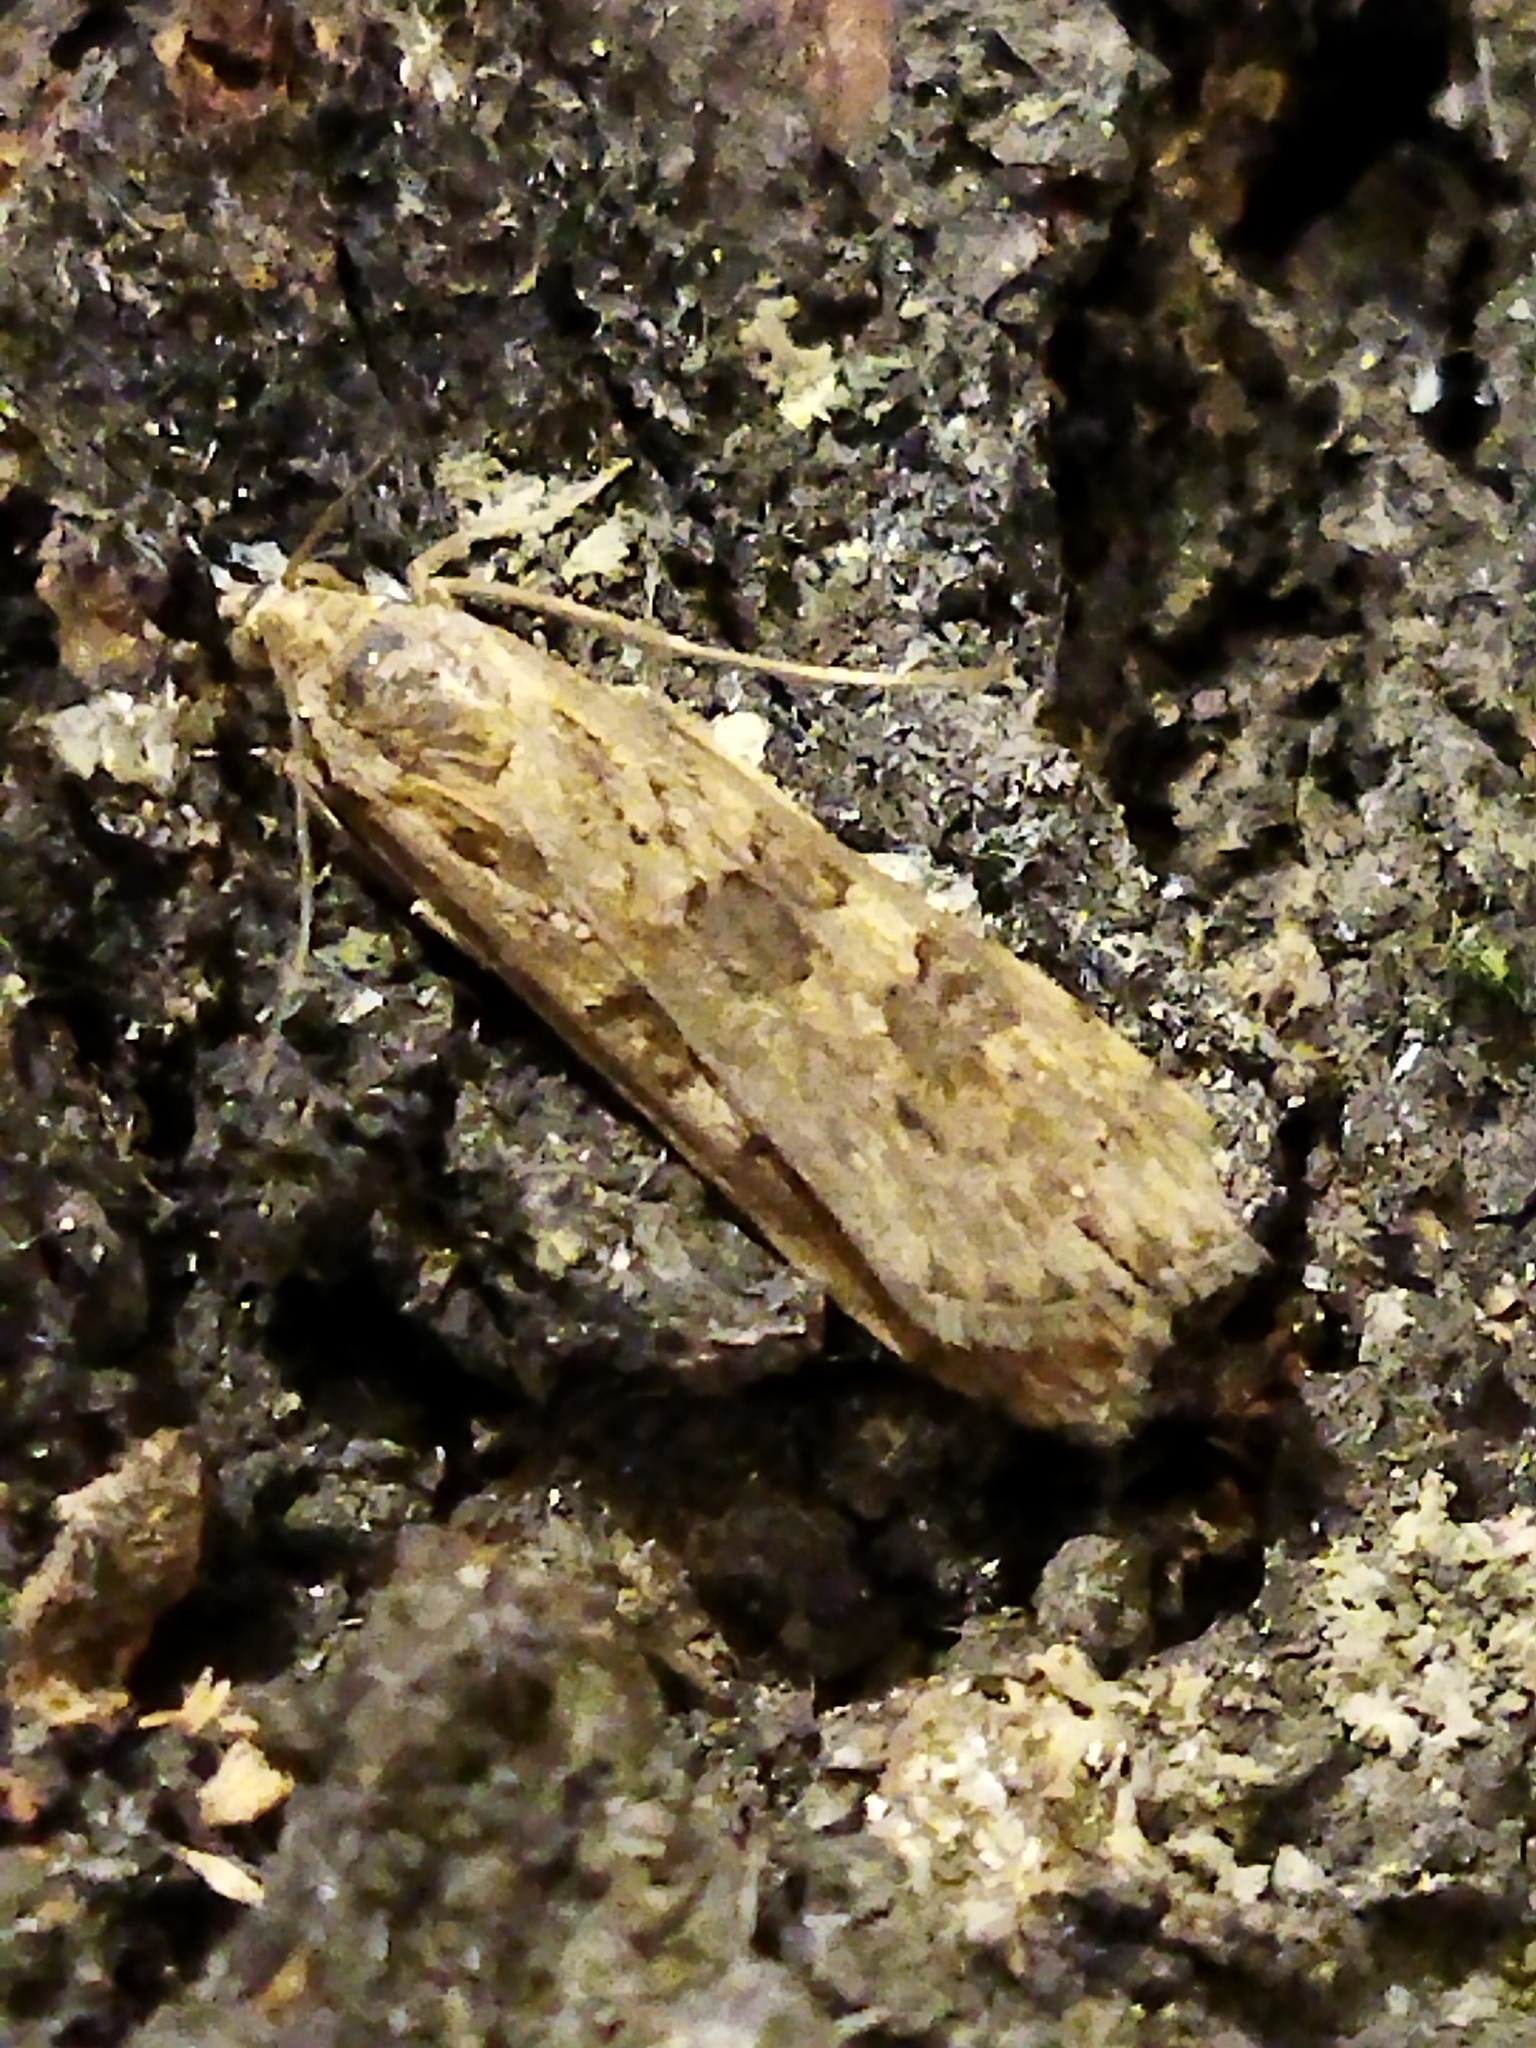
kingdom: Animalia
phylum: Arthropoda
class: Insecta
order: Lepidoptera
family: Crambidae
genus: Nomophila
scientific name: Nomophila noctuella
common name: Rush veneer
